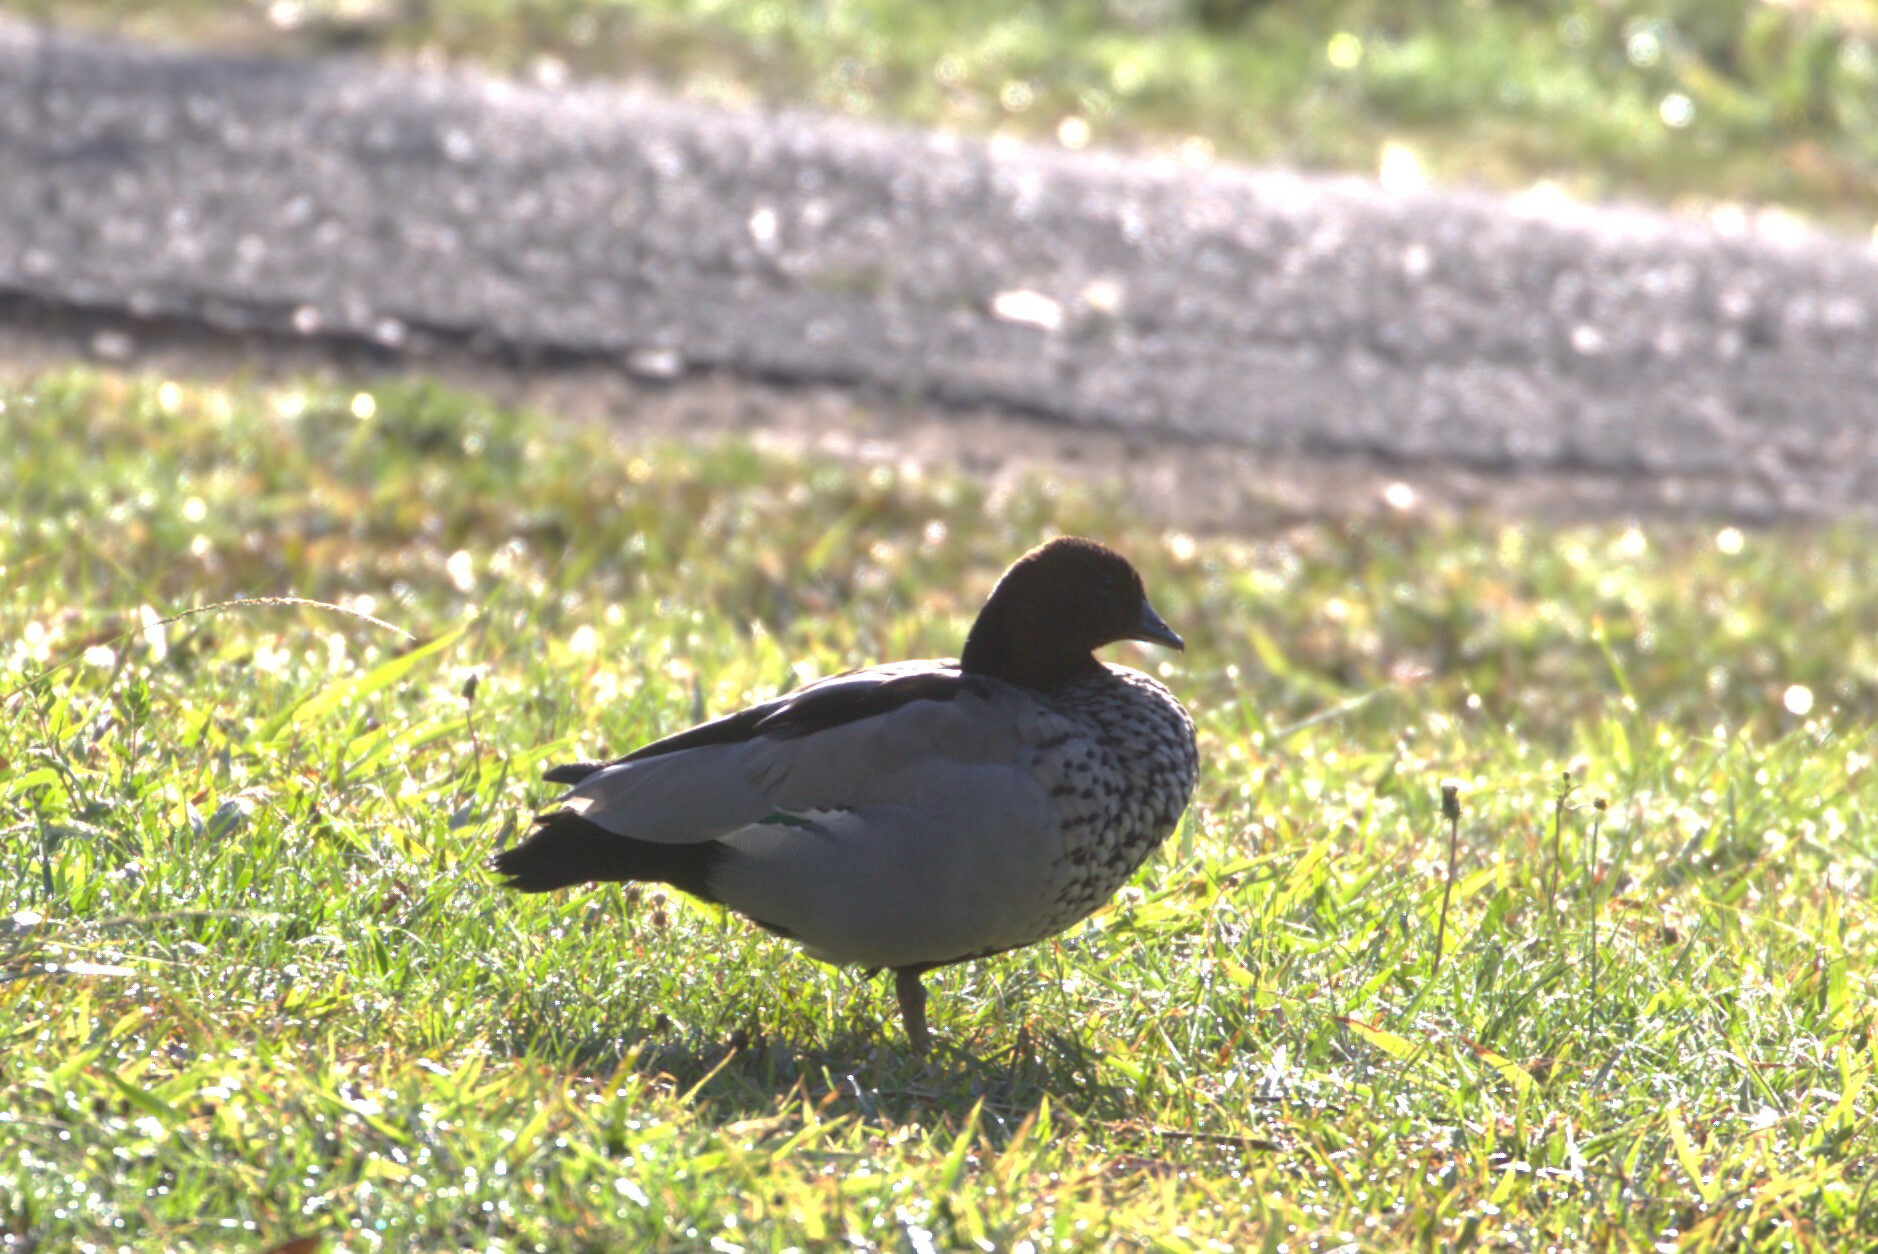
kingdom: Animalia
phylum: Chordata
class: Aves
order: Anseriformes
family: Anatidae
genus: Chenonetta
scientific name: Chenonetta jubata
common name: Maned duck
